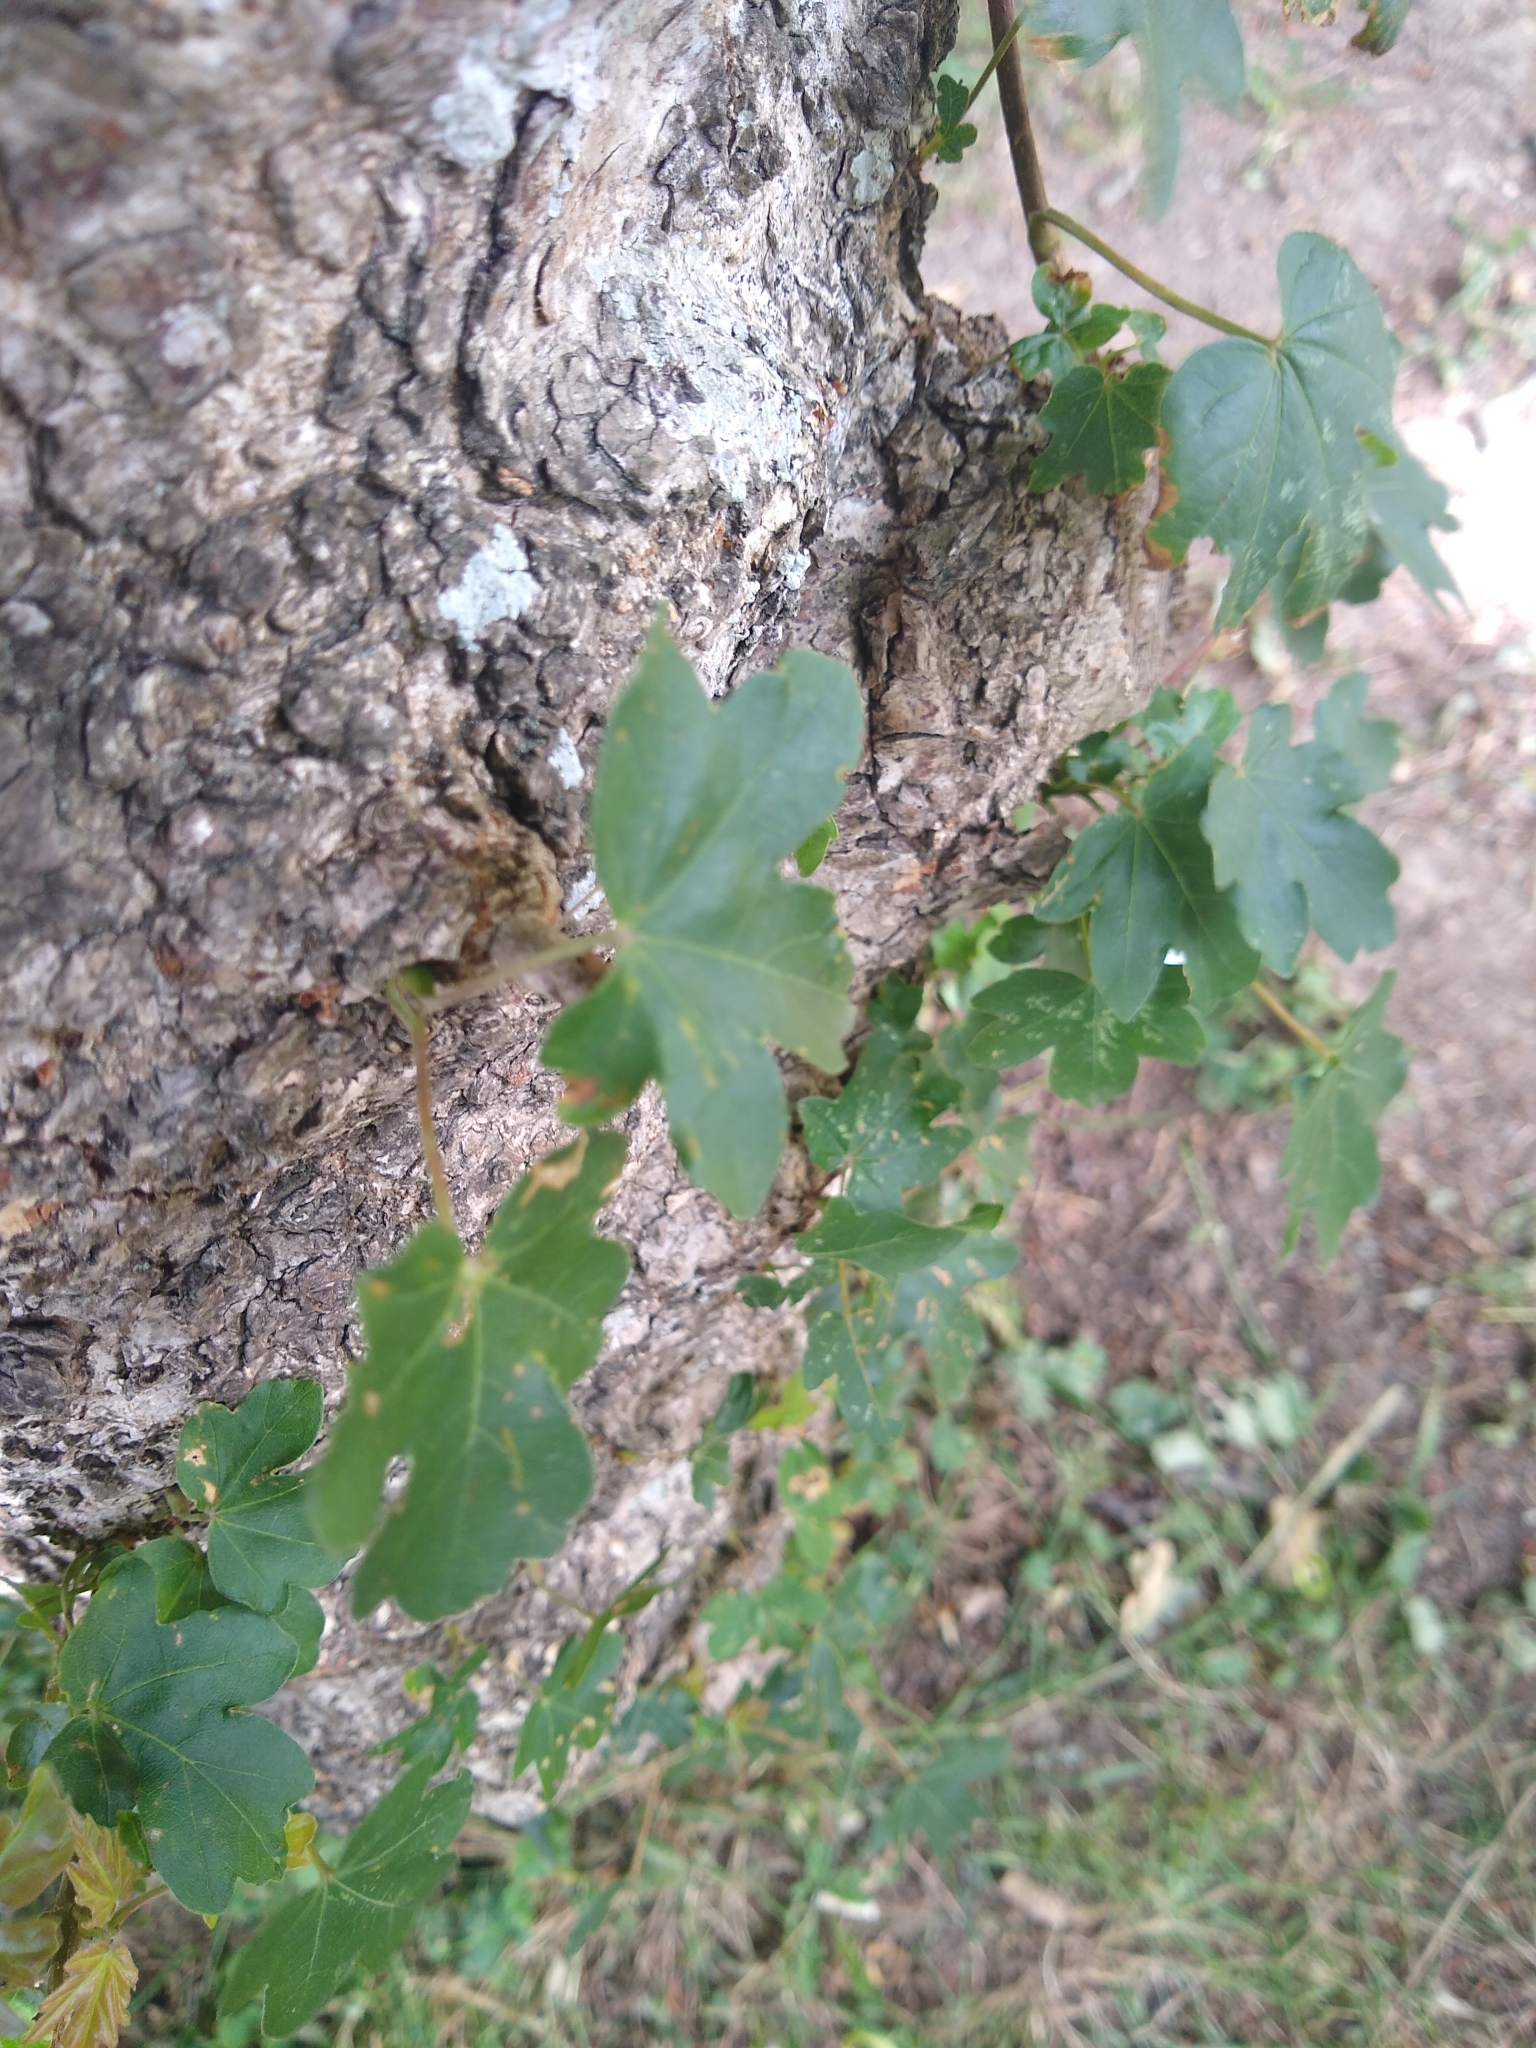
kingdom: Plantae
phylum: Tracheophyta
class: Magnoliopsida
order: Sapindales
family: Sapindaceae
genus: Acer
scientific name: Acer campestre
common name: Field maple
